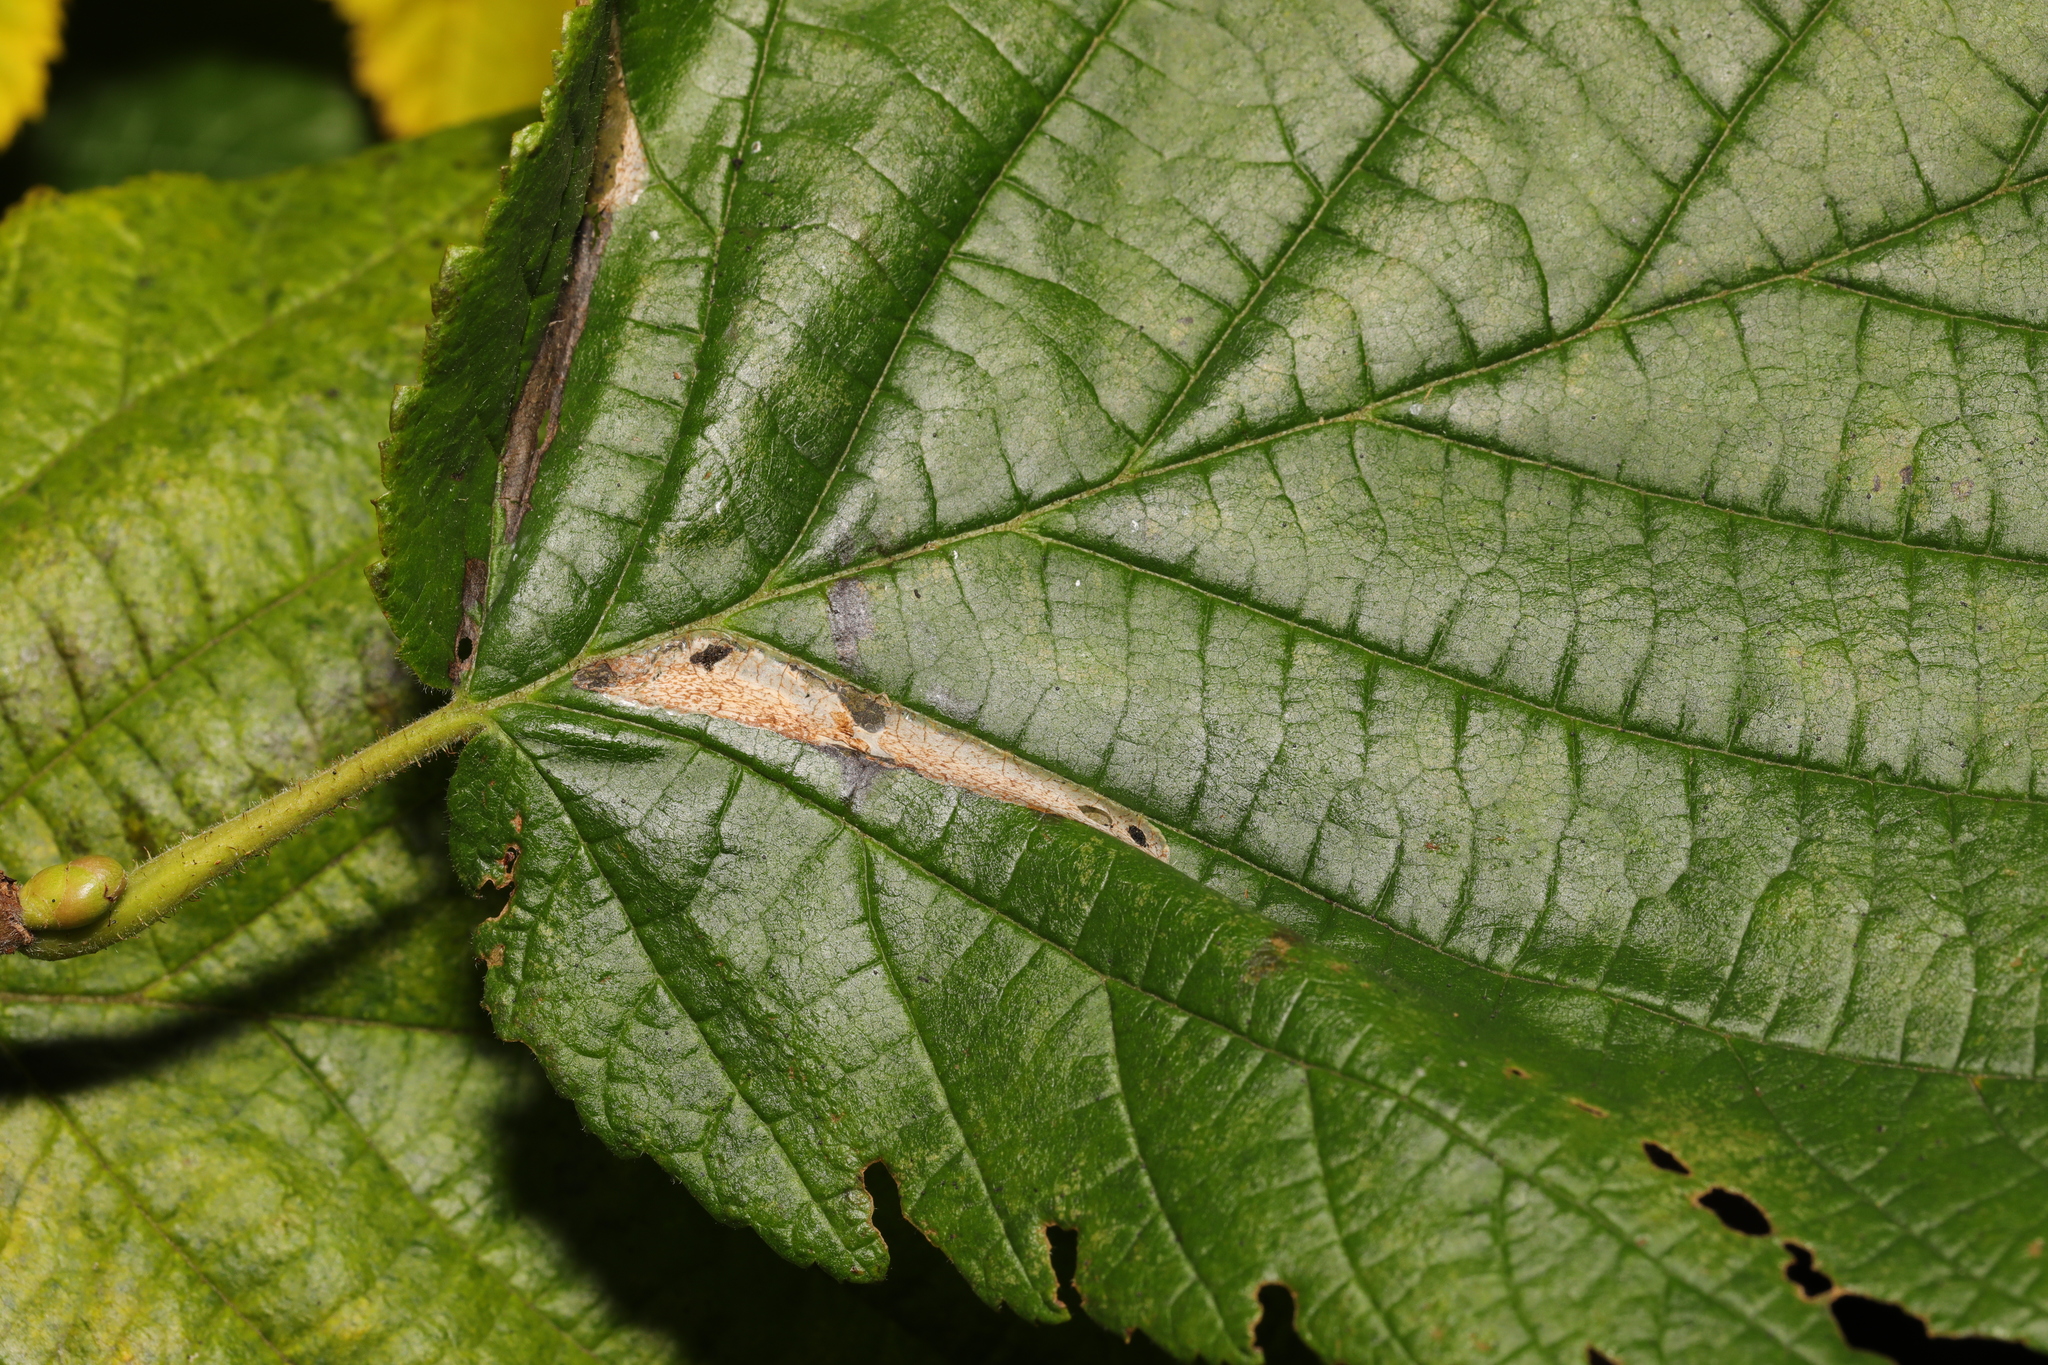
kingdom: Animalia
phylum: Arthropoda
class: Insecta
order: Lepidoptera
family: Gracillariidae
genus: Phyllonorycter
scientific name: Phyllonorycter nicellii
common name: Red hazel midget
